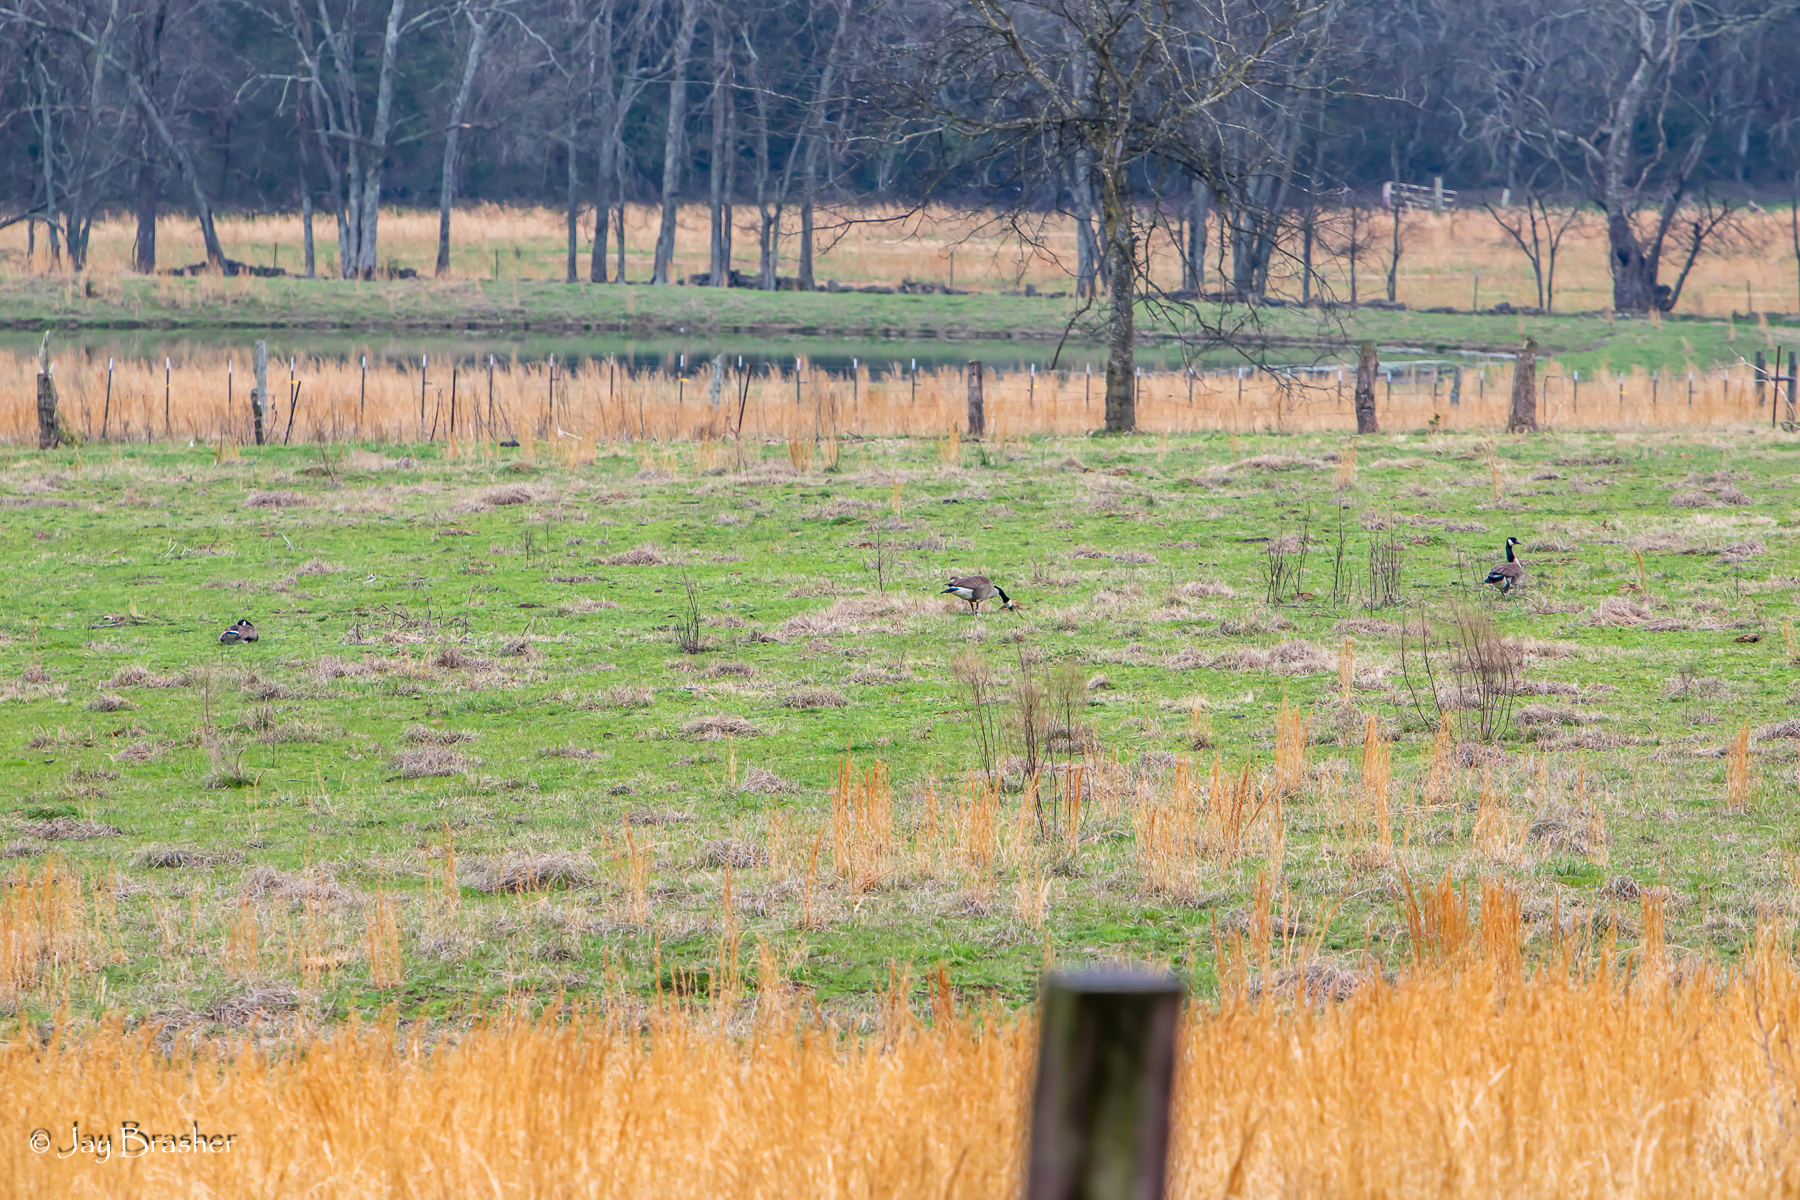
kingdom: Animalia
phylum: Chordata
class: Aves
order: Anseriformes
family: Anatidae
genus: Branta
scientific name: Branta canadensis
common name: Canada goose
